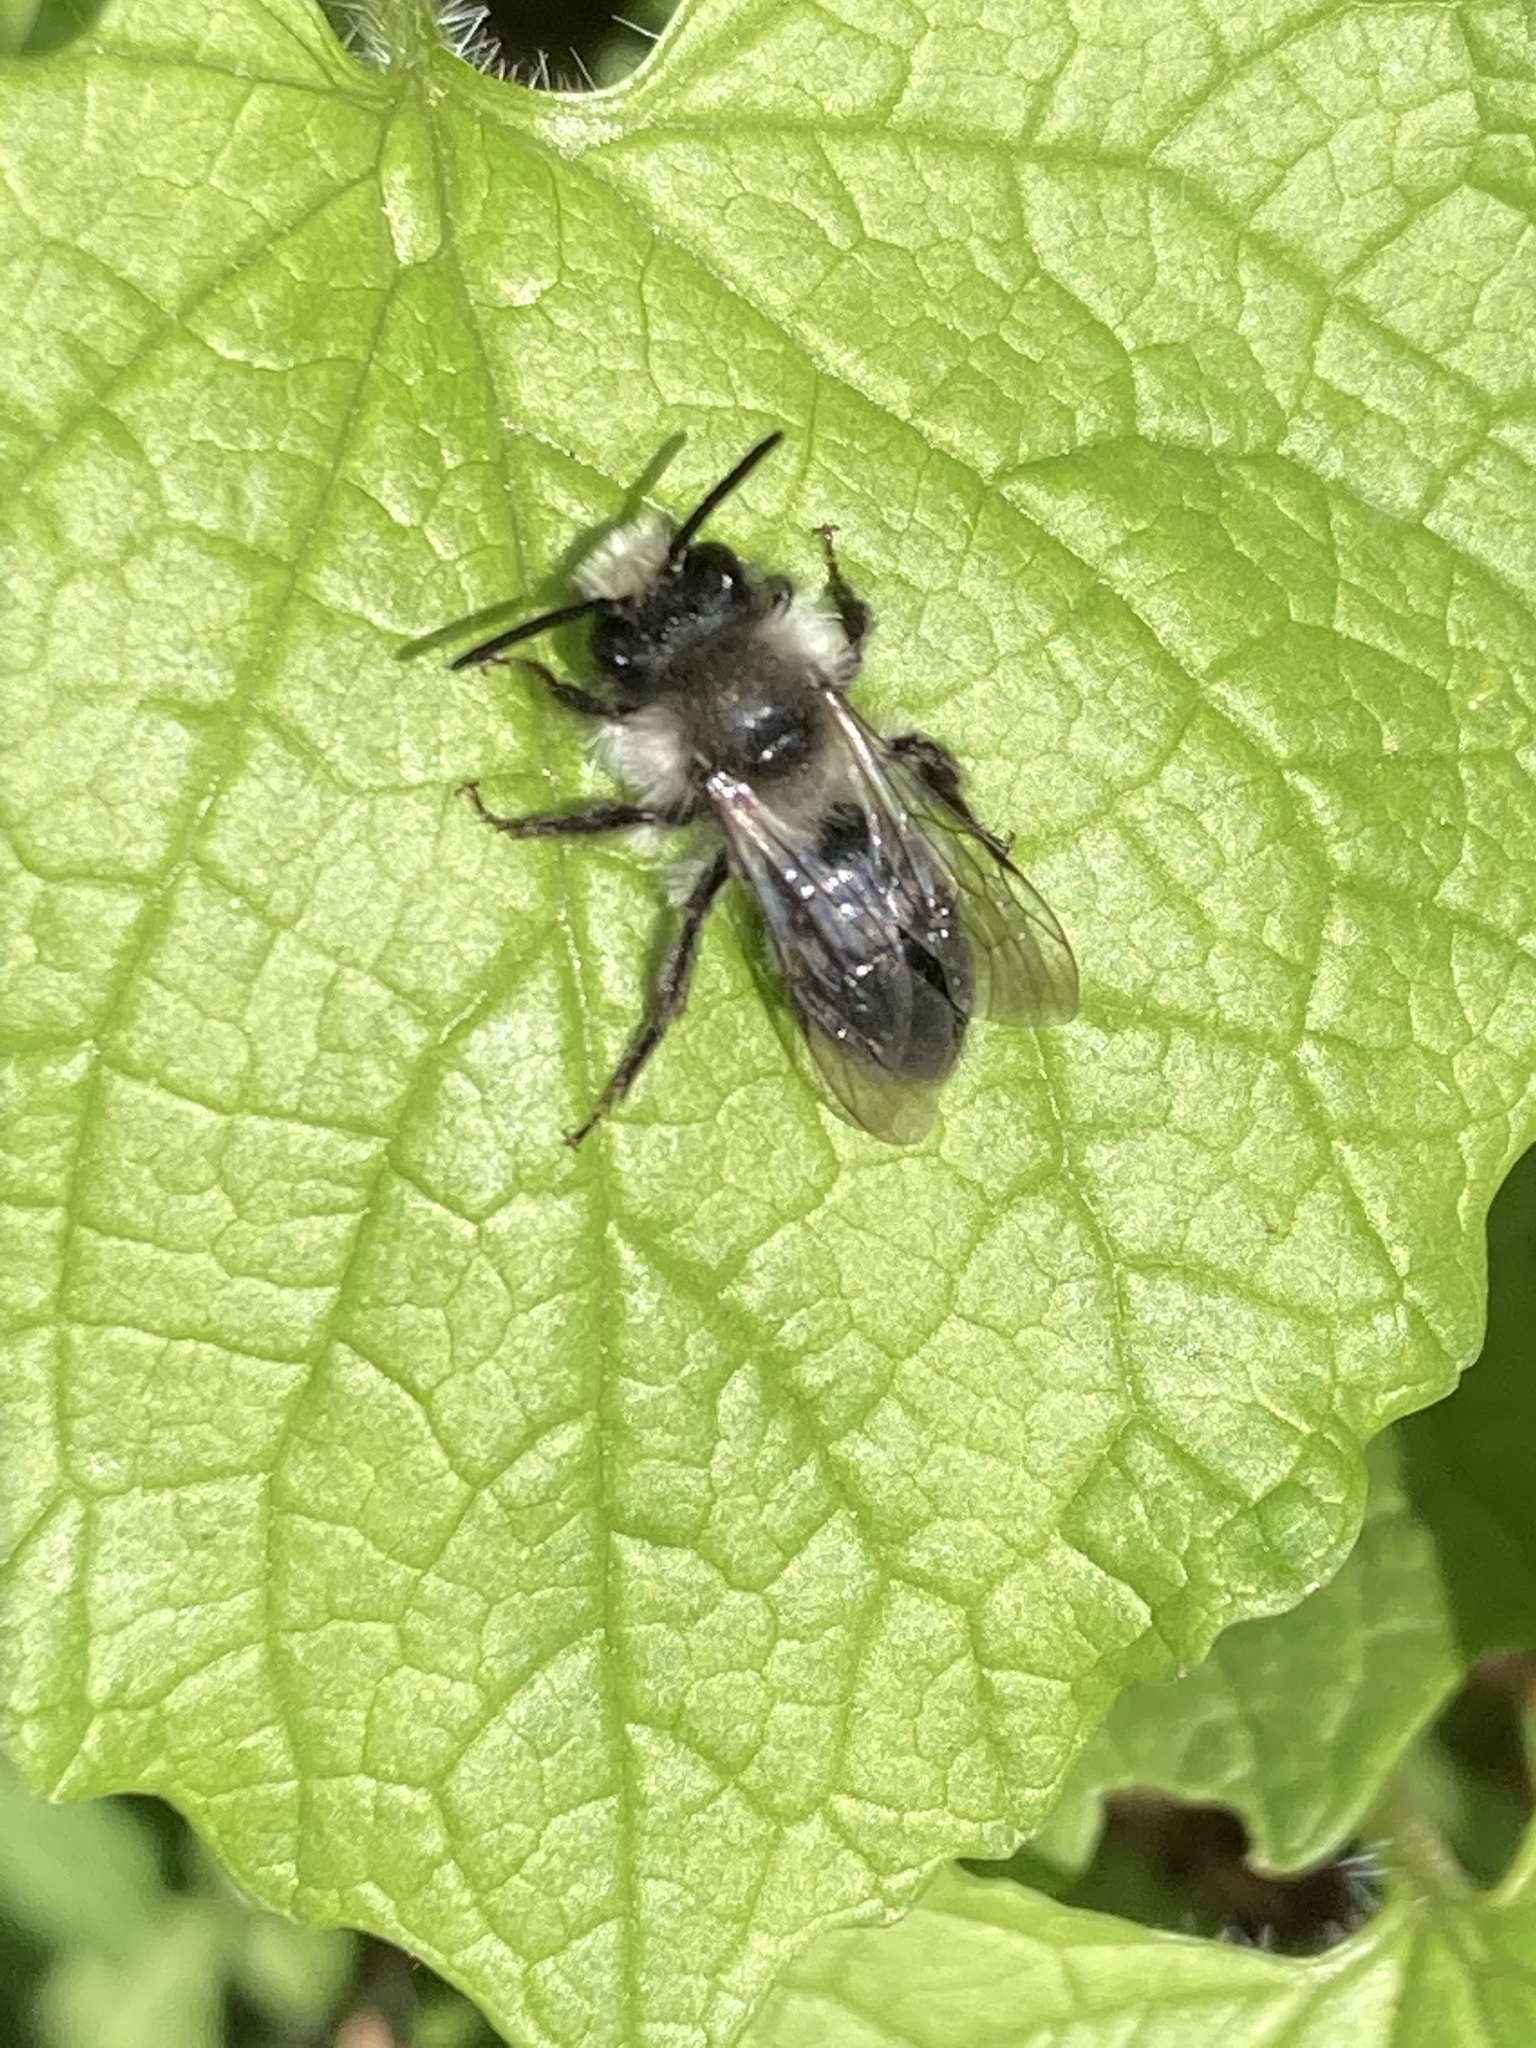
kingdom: Animalia
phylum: Arthropoda
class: Insecta
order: Hymenoptera
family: Andrenidae
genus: Andrena
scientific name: Andrena cineraria
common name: Ashy mining bee
